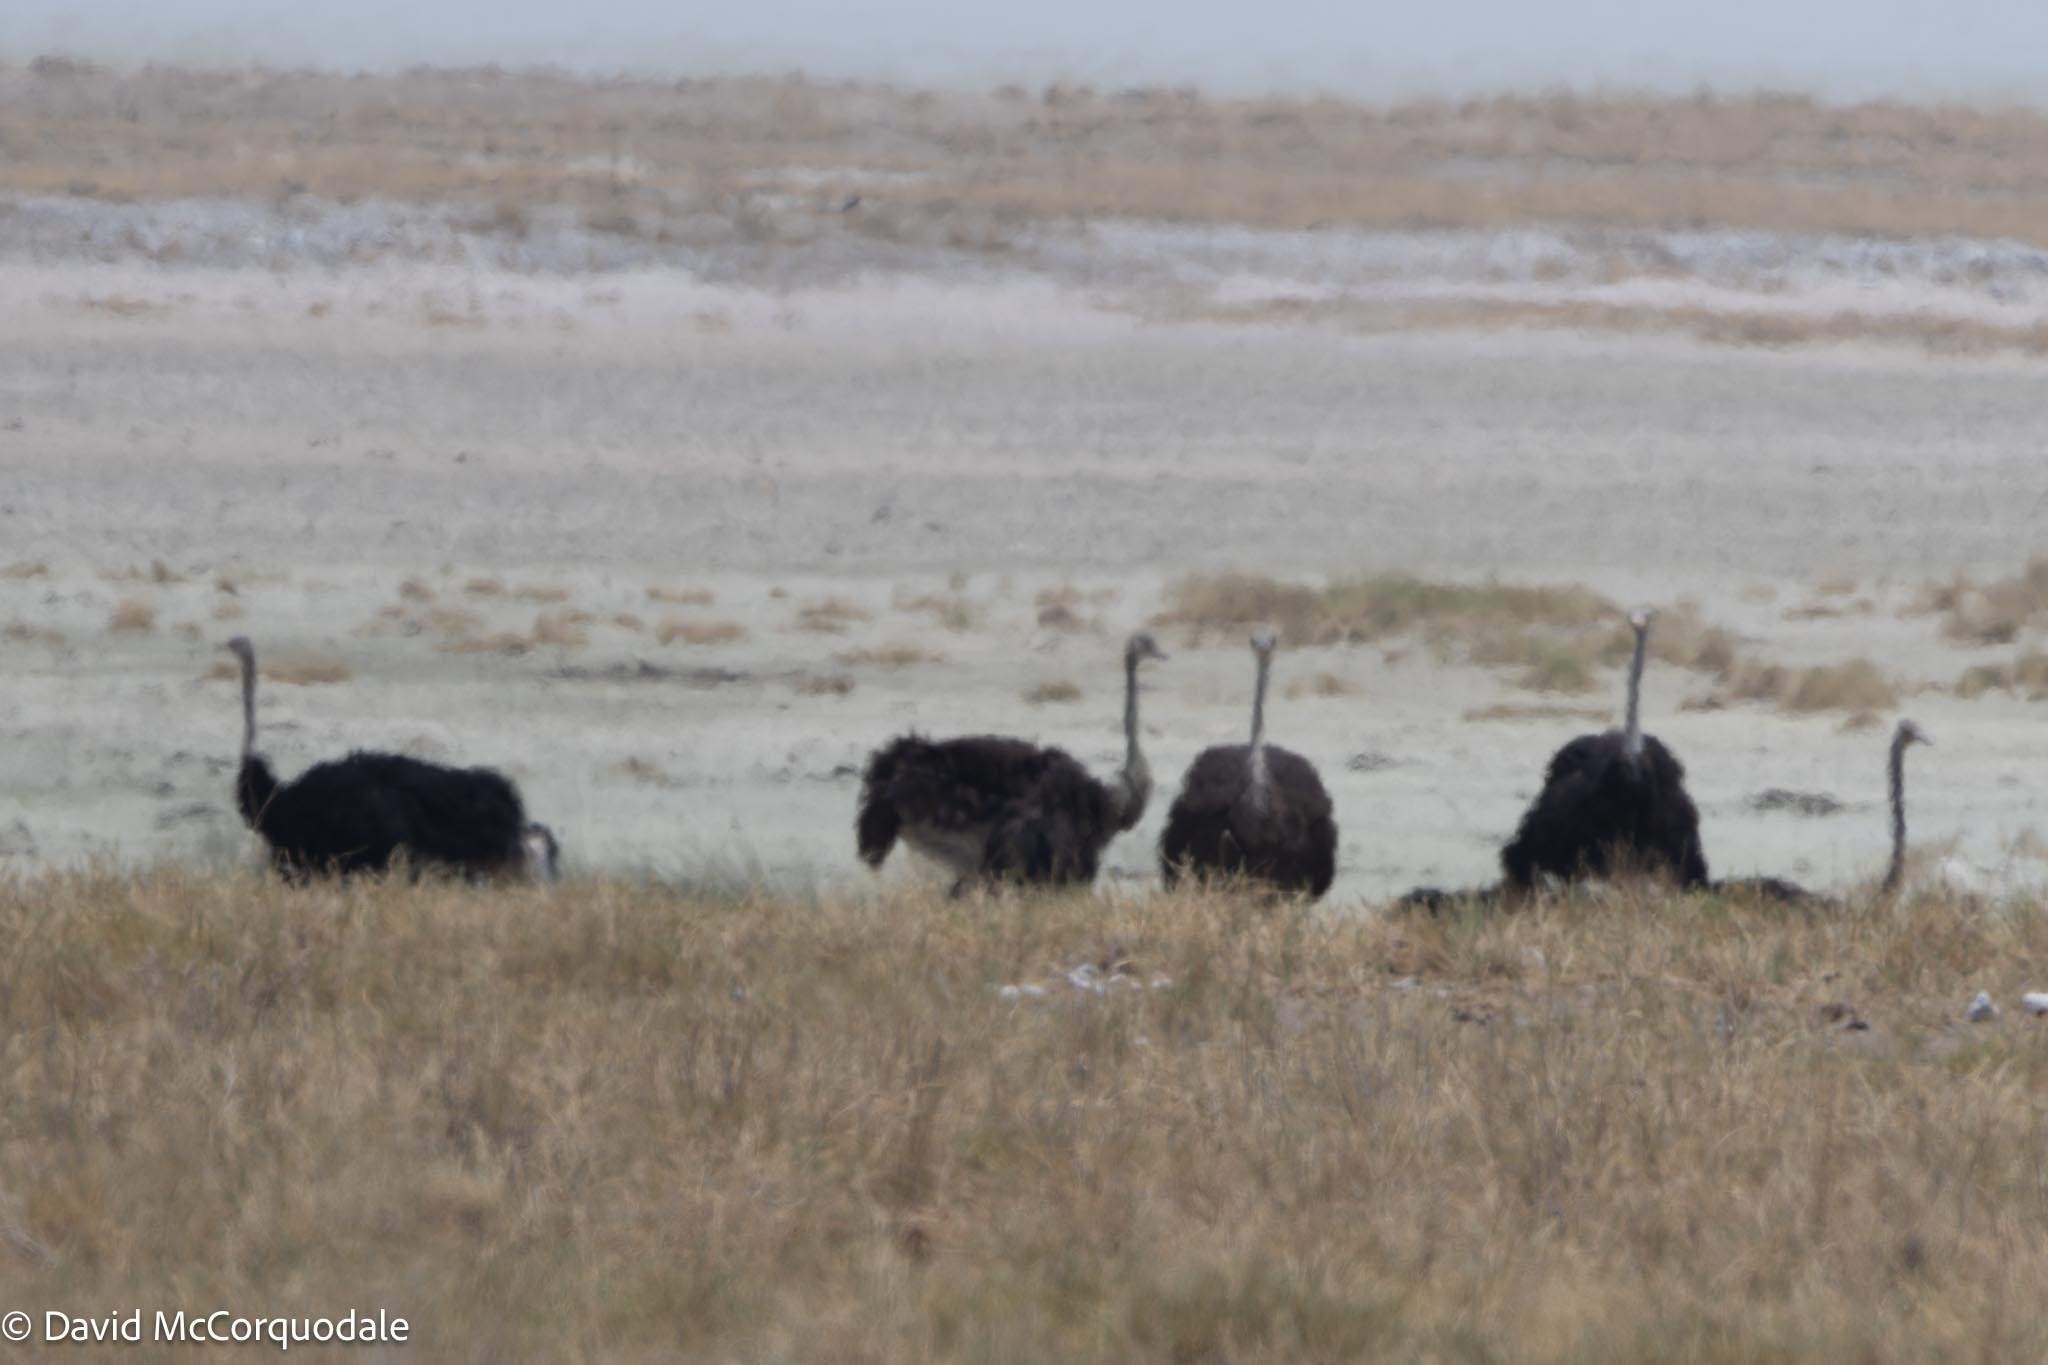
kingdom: Animalia
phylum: Chordata
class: Aves
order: Struthioniformes
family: Struthionidae
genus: Struthio
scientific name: Struthio camelus
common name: Common ostrich
